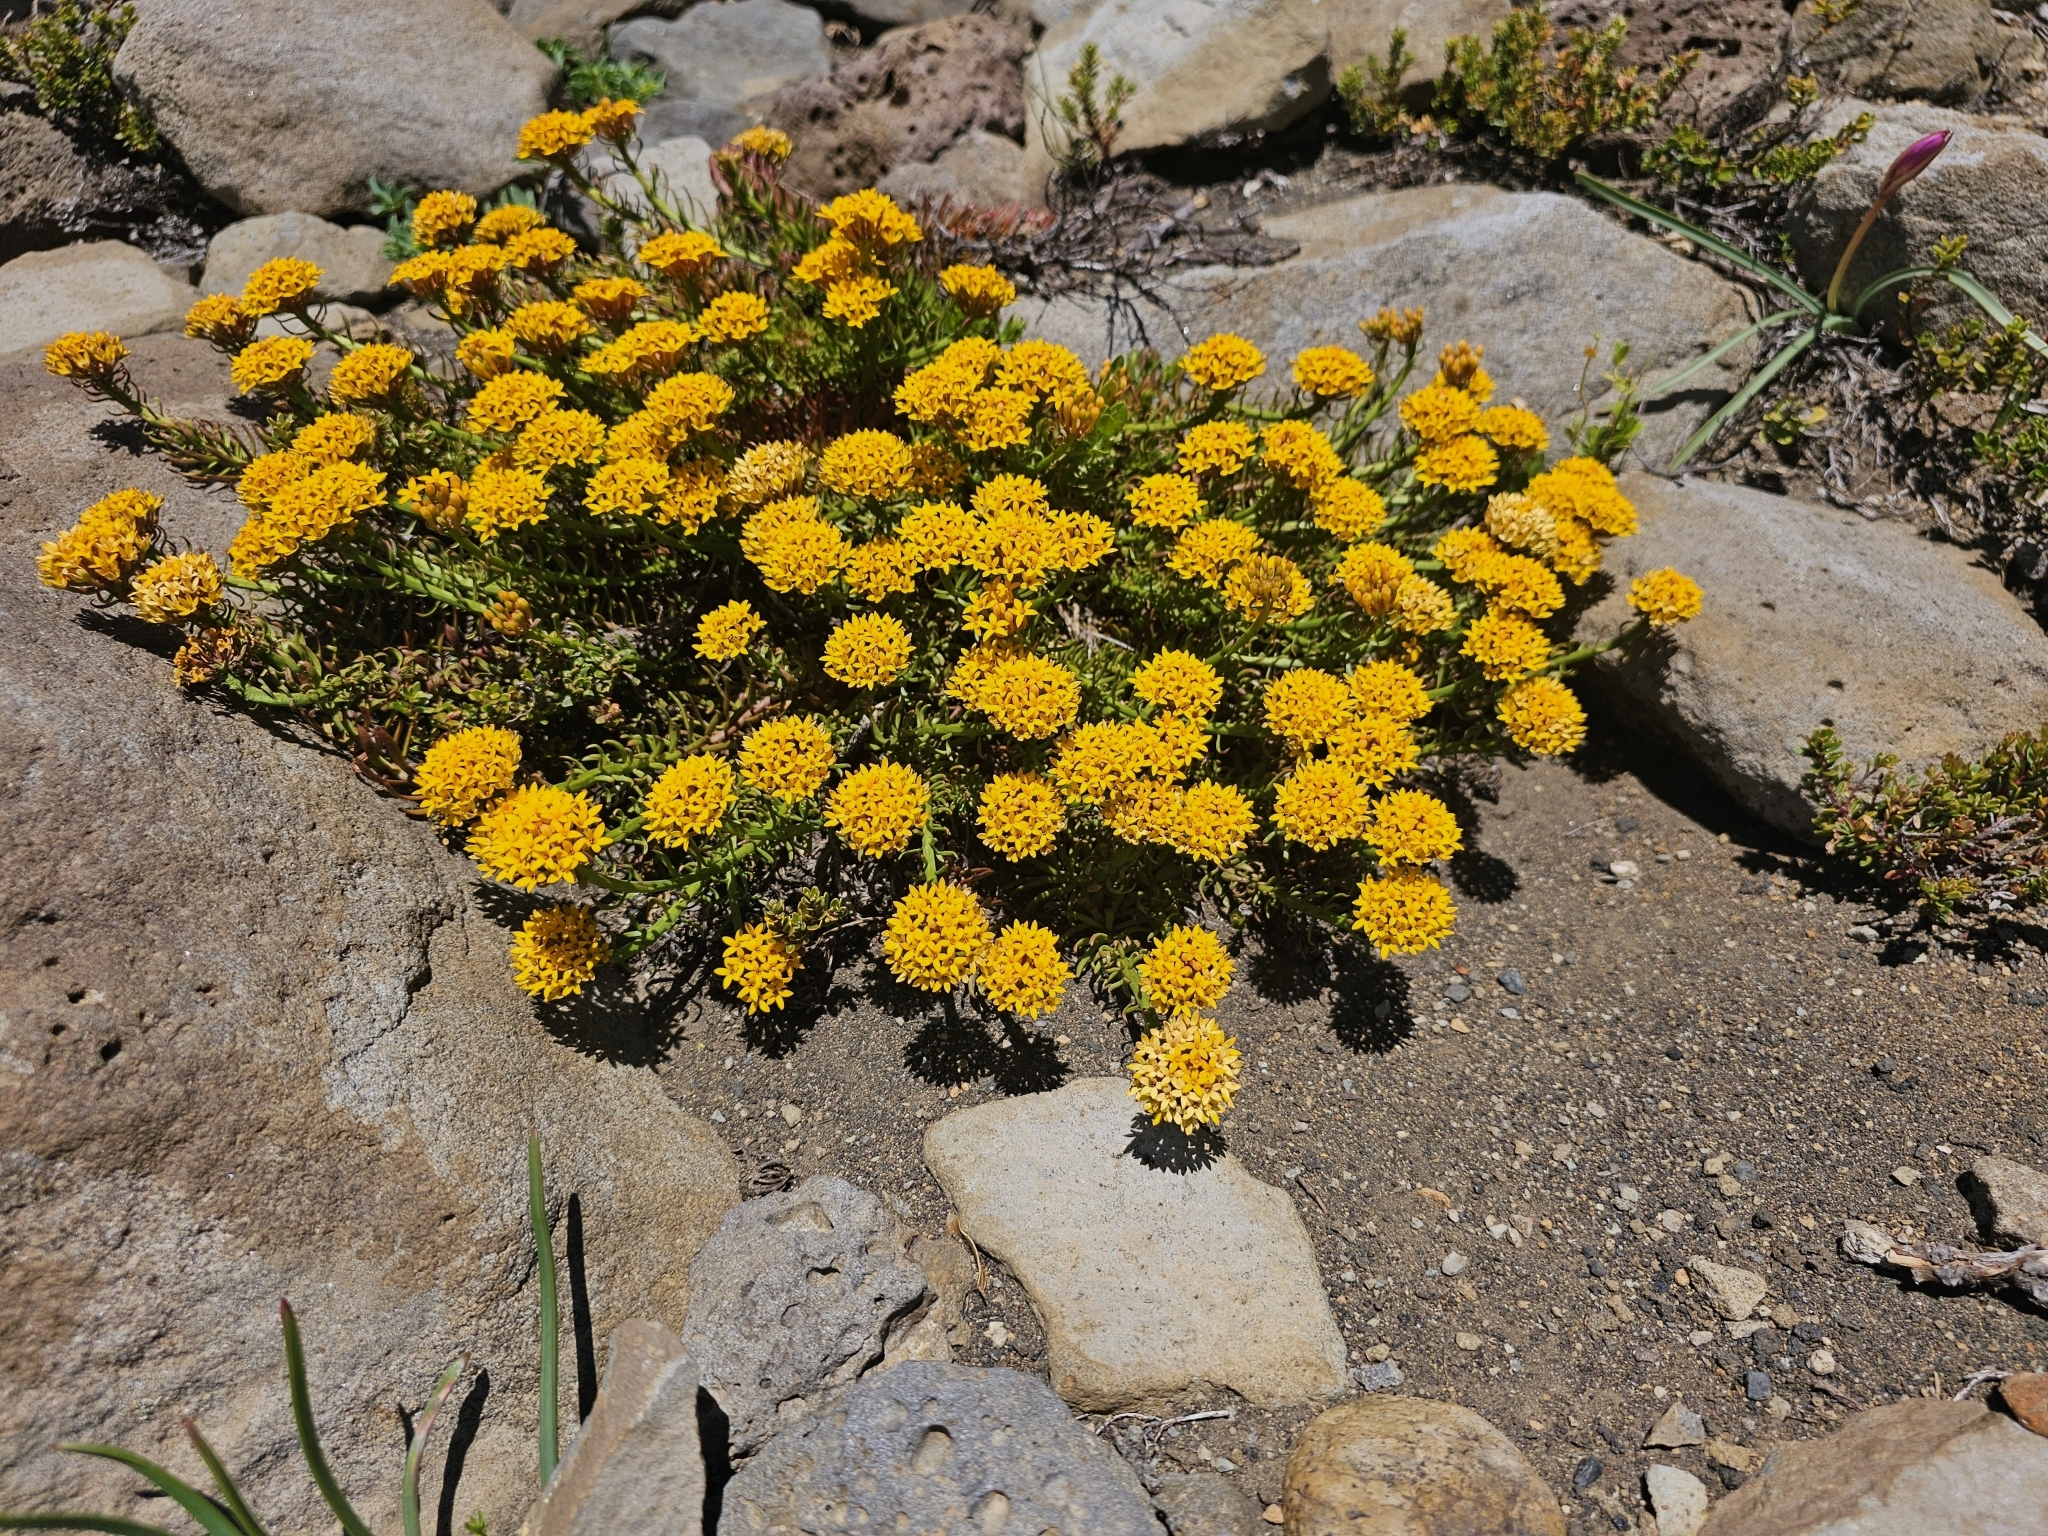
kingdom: Plantae
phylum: Tracheophyta
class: Magnoliopsida
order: Santalales
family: Schoepfiaceae
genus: Quinchamalium
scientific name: Quinchamalium chilense
